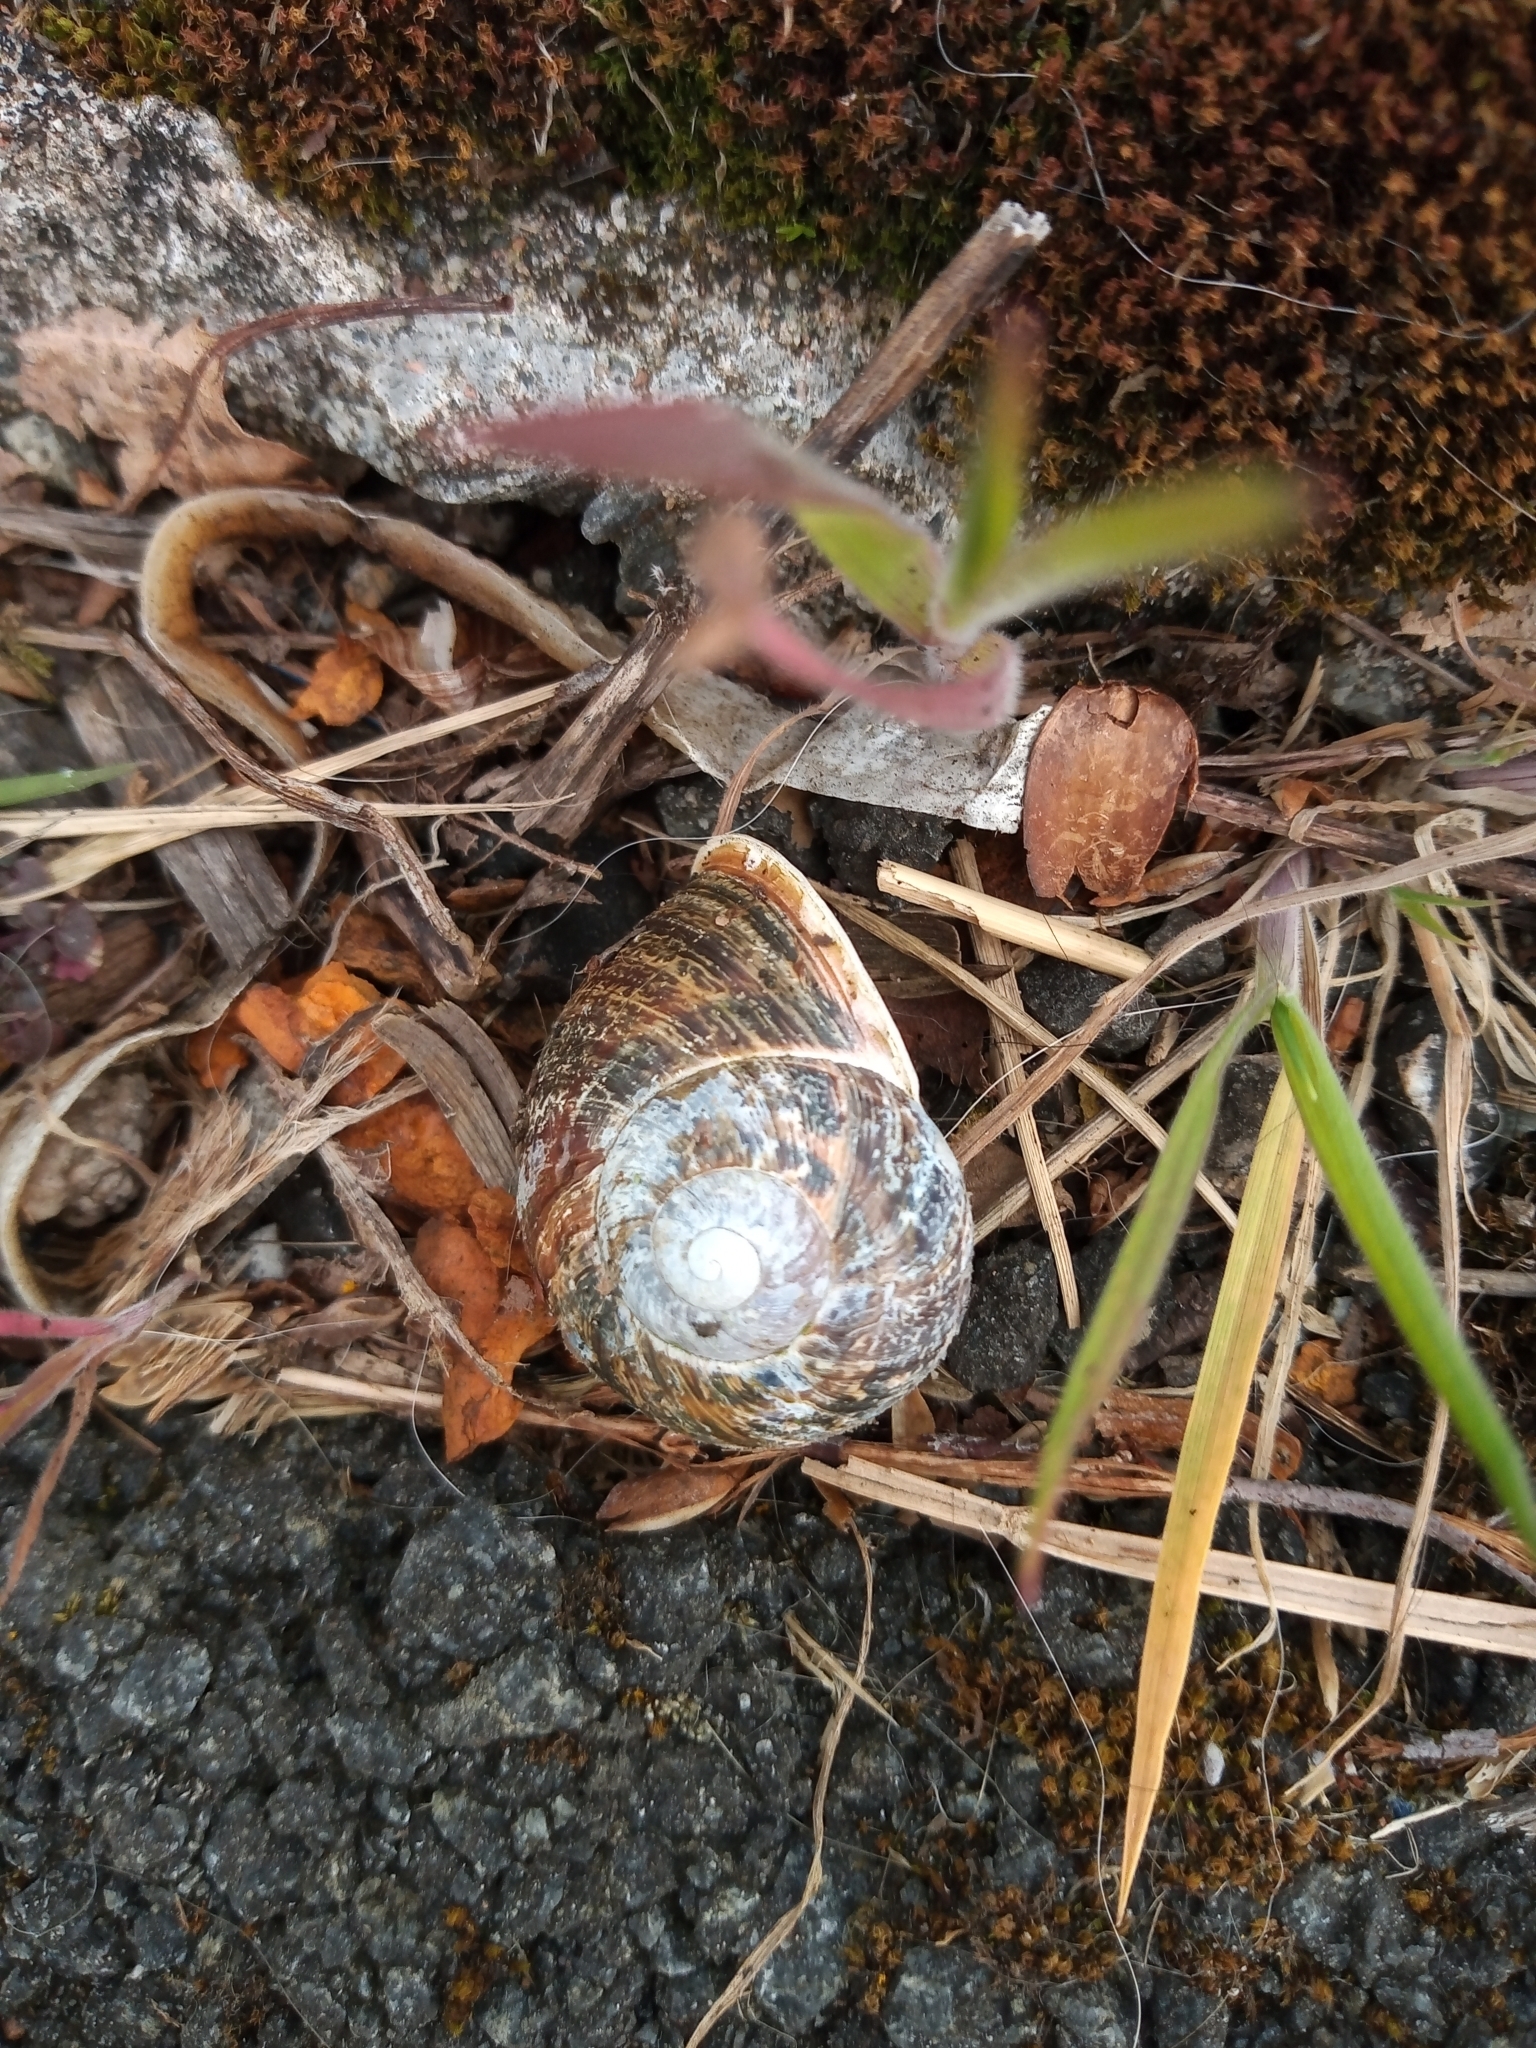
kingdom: Animalia
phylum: Mollusca
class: Gastropoda
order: Stylommatophora
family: Helicidae
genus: Cornu
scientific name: Cornu aspersum
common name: Brown garden snail
